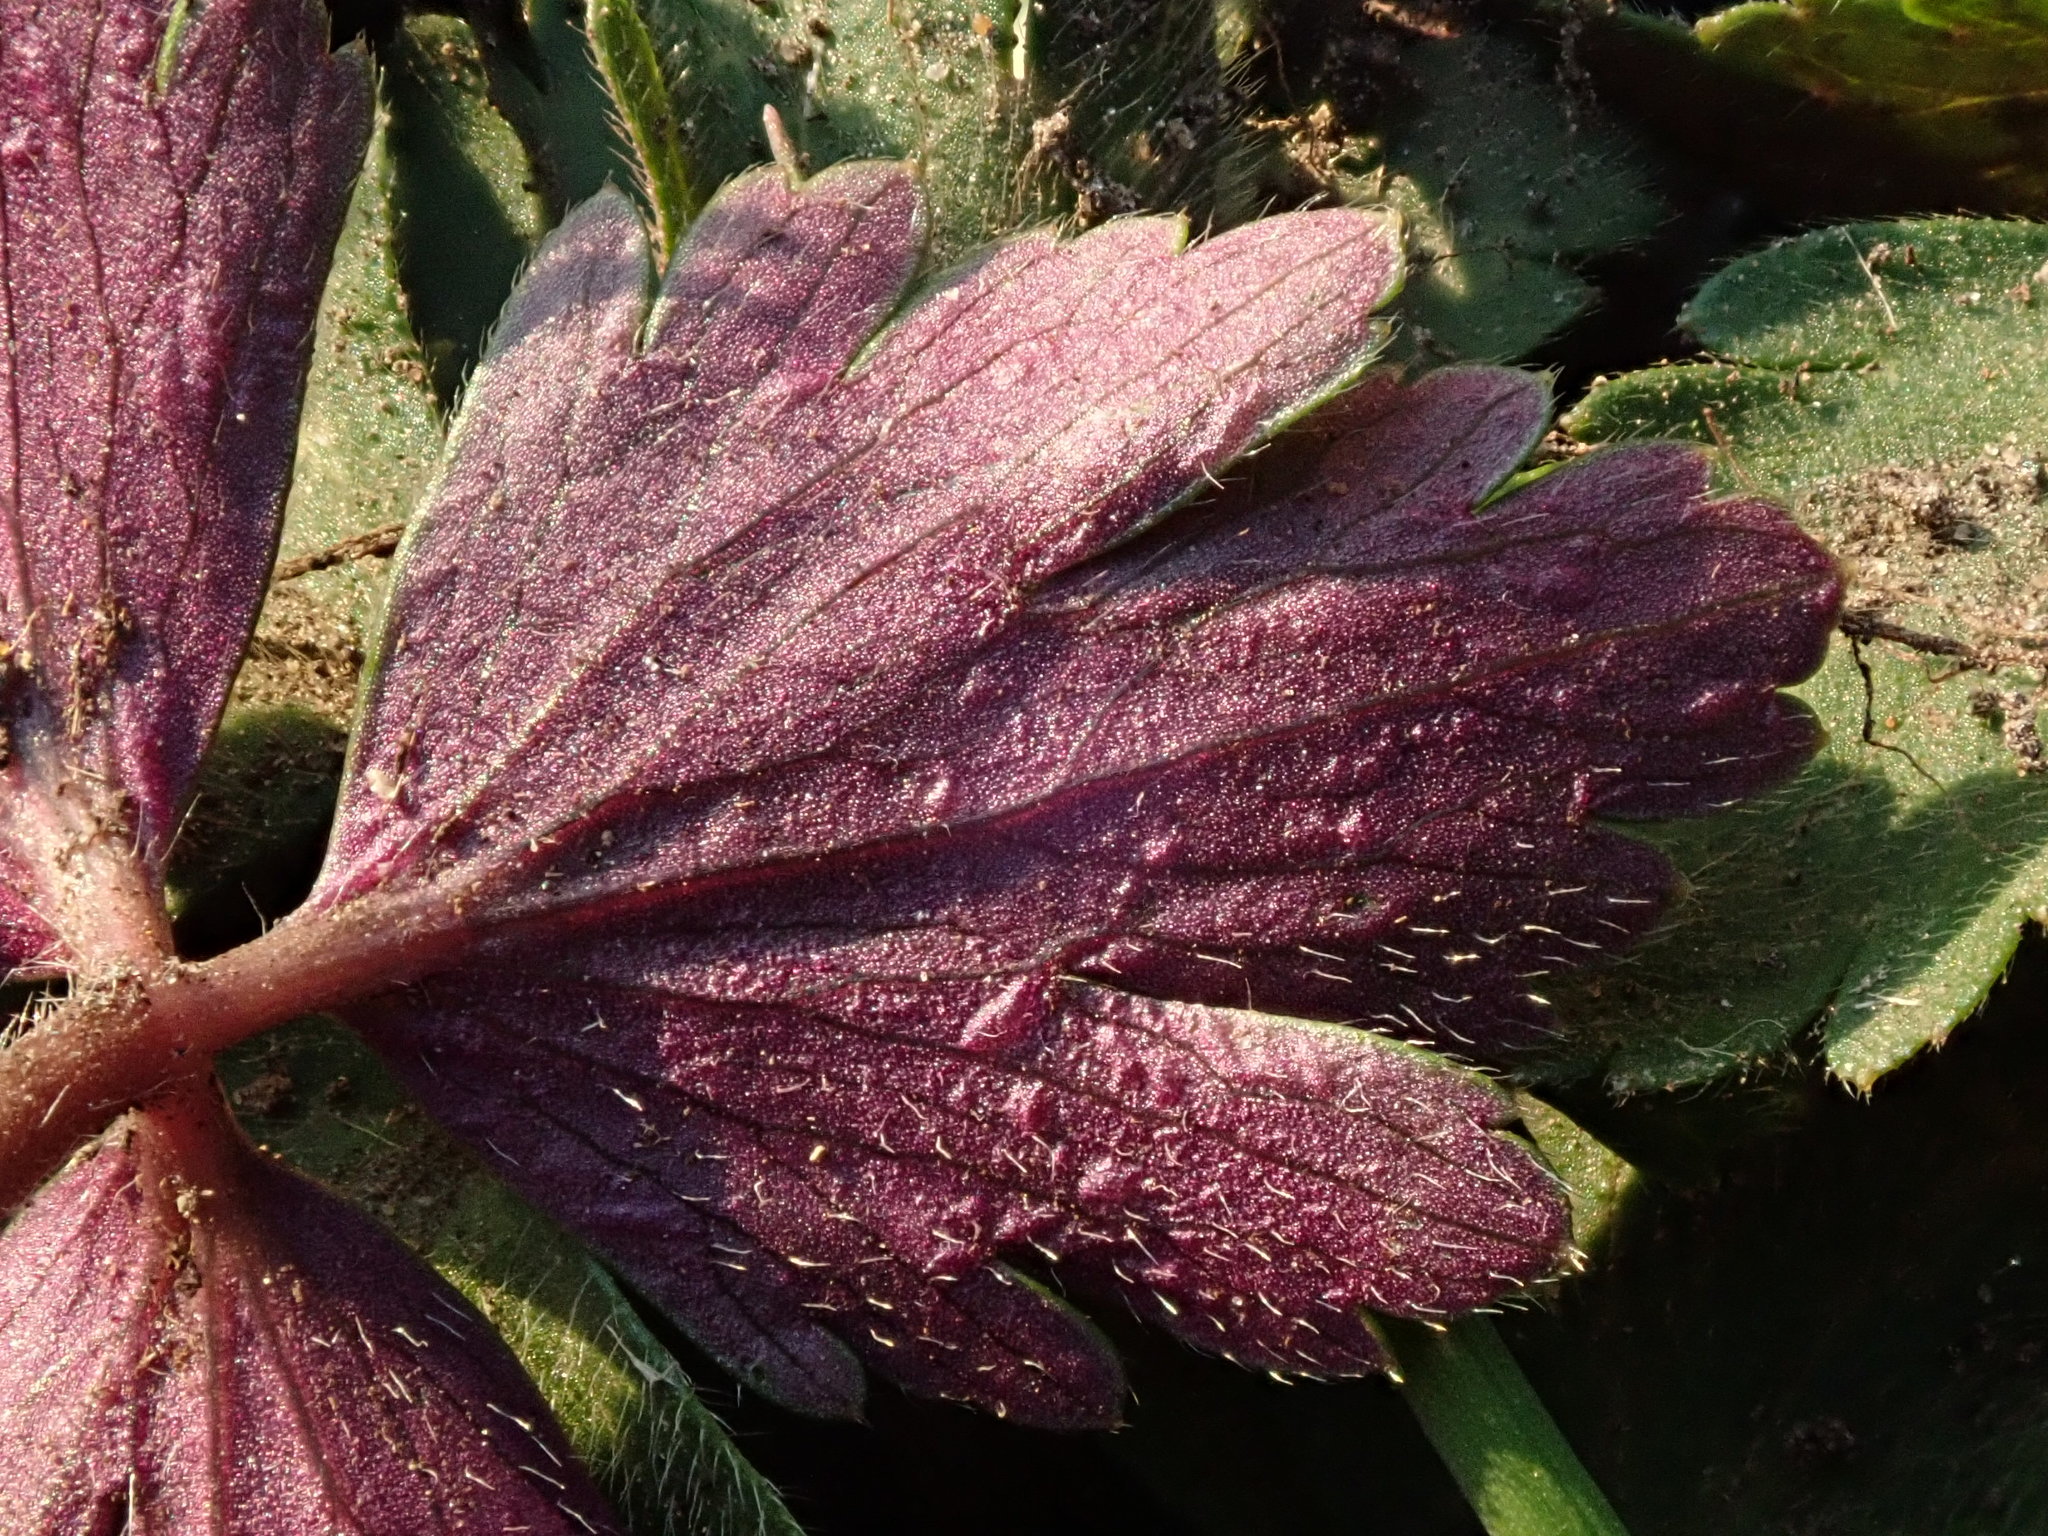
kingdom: Plantae
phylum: Tracheophyta
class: Magnoliopsida
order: Ranunculales
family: Ranunculaceae
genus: Anemone
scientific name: Anemone apennina
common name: Blue anemone
